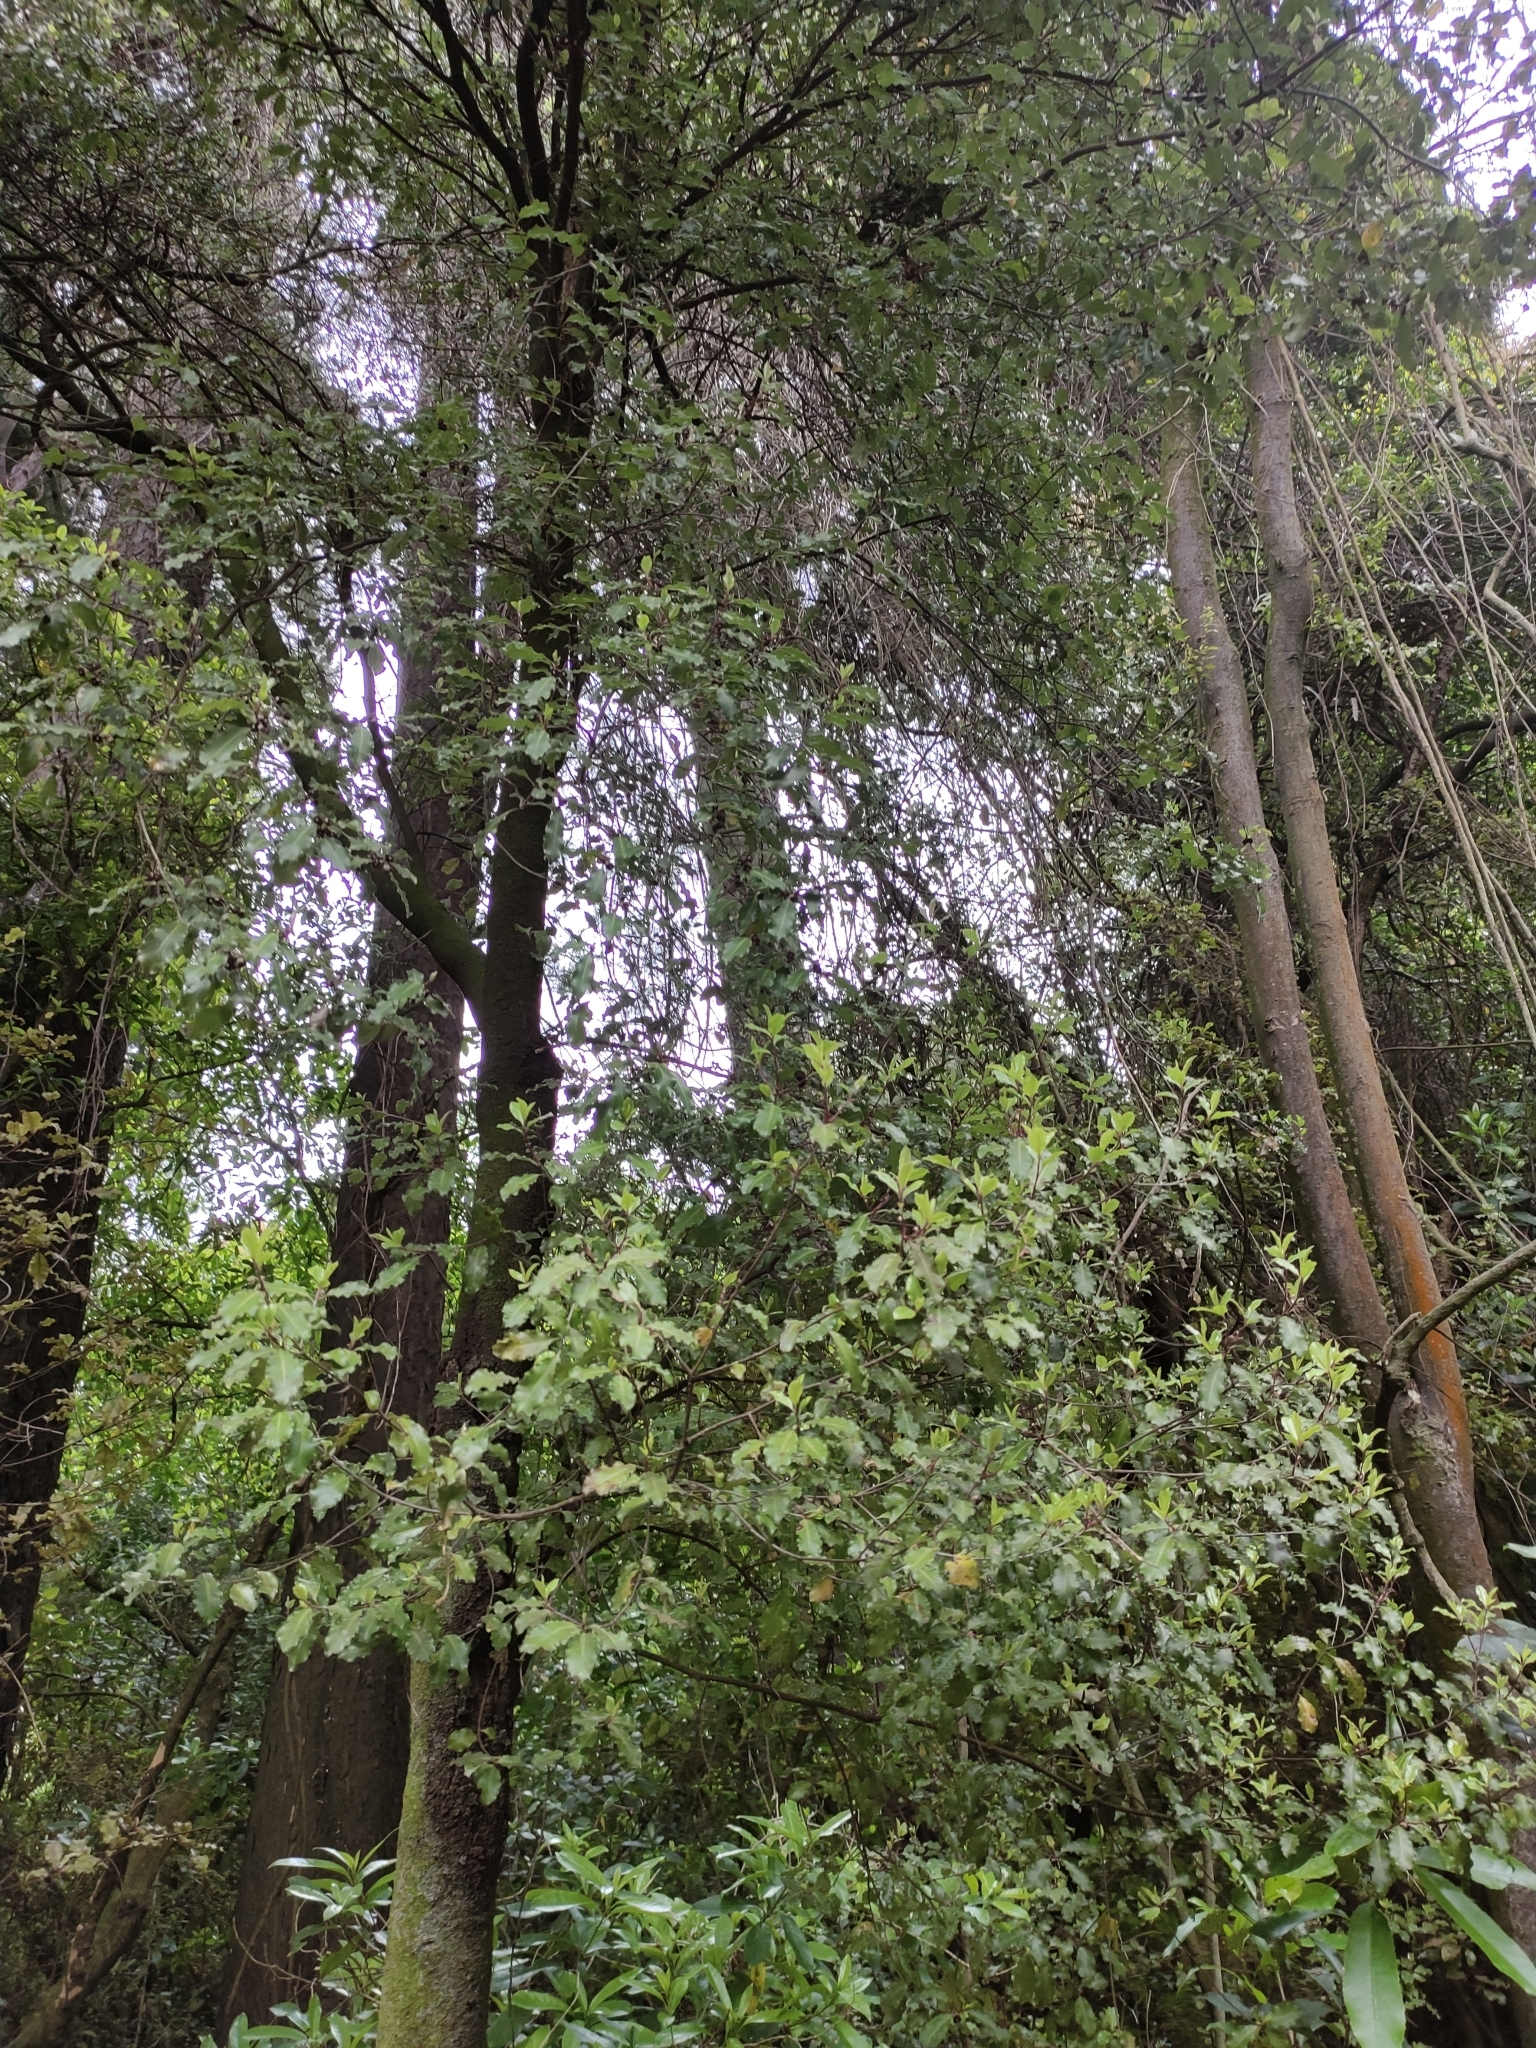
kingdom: Plantae
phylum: Tracheophyta
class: Magnoliopsida
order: Apiales
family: Pittosporaceae
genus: Pittosporum
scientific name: Pittosporum tenuifolium
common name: Kohuhu
